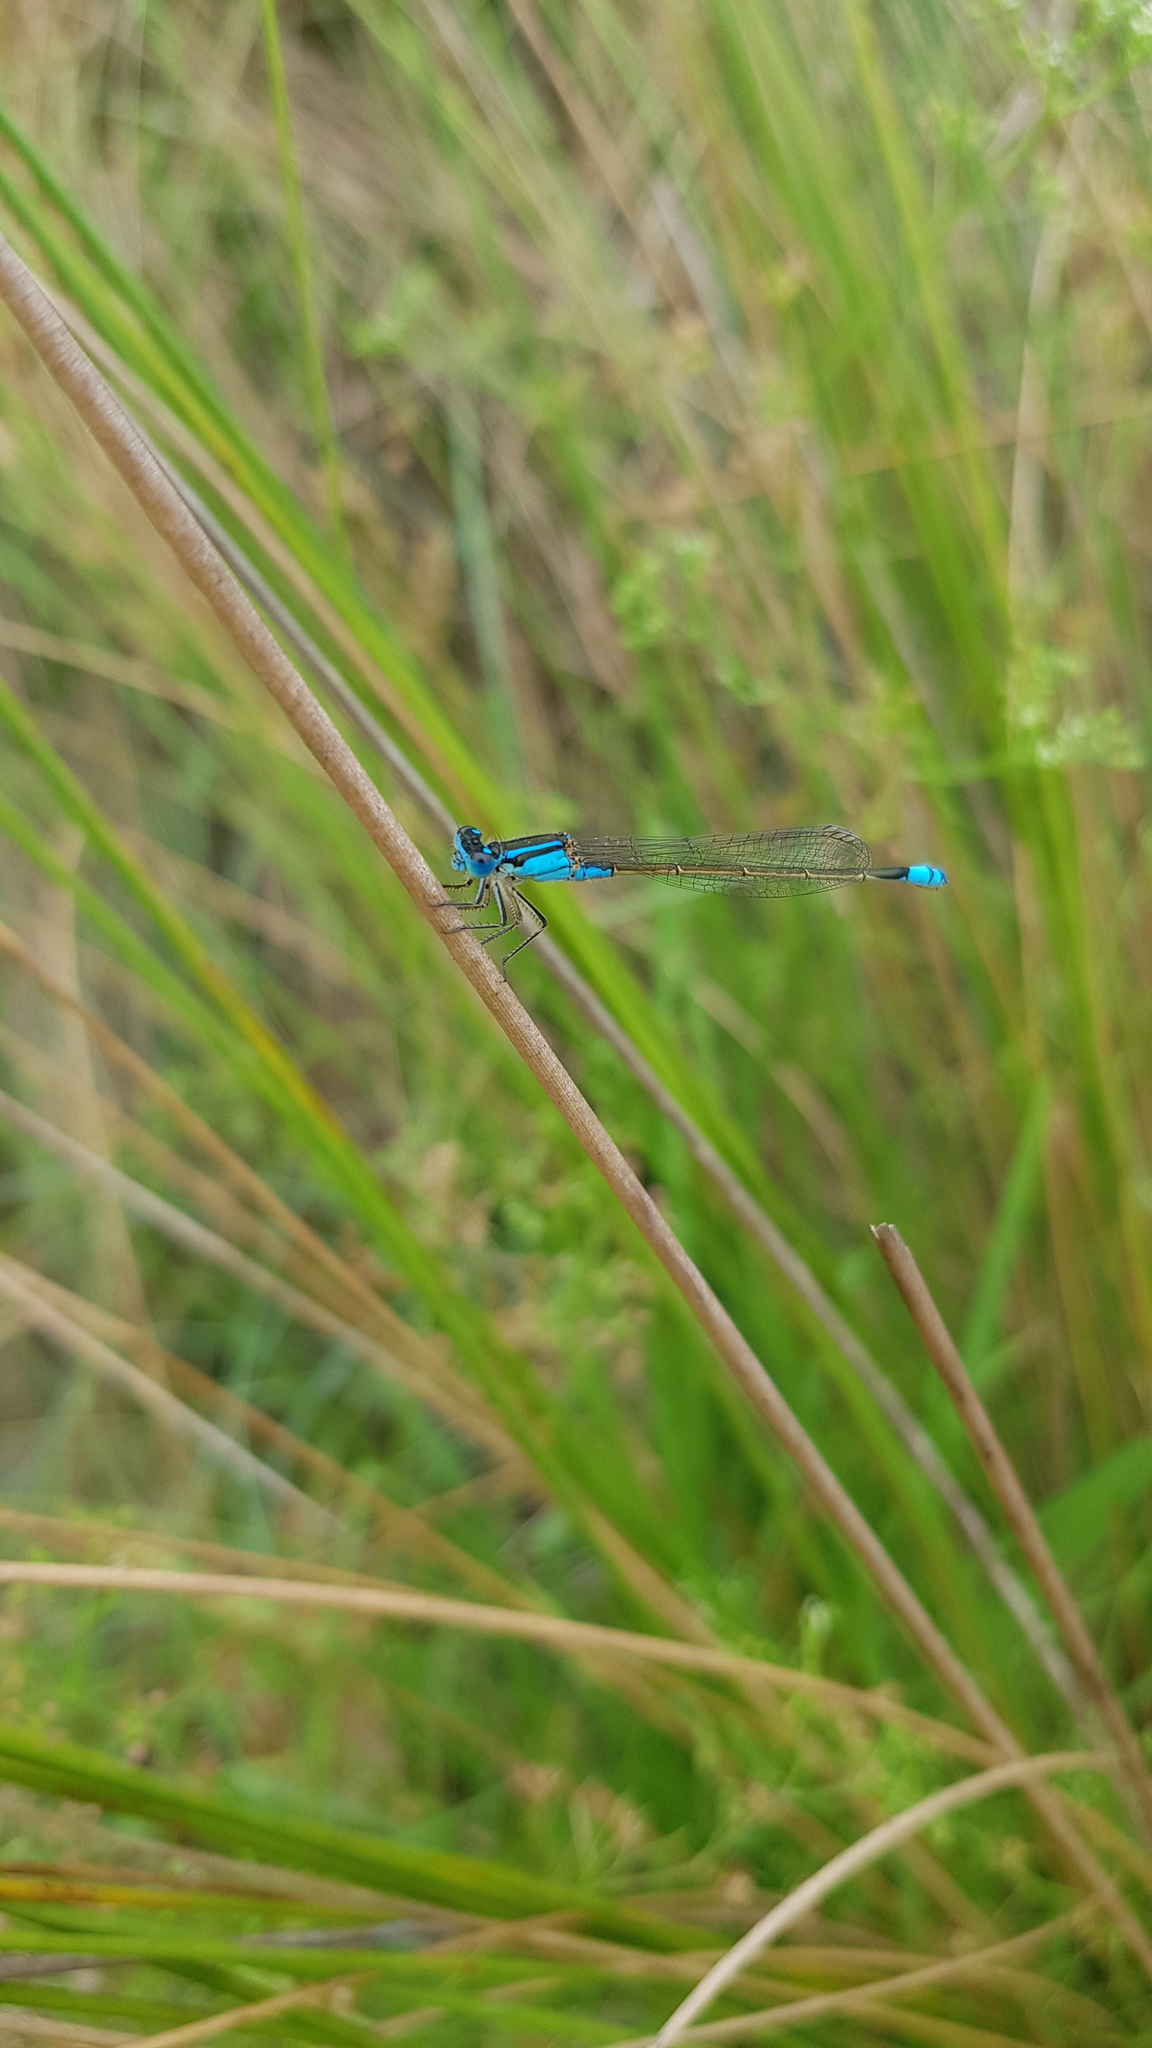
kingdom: Animalia
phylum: Arthropoda
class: Insecta
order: Odonata
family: Coenagrionidae
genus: Ischnura
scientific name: Ischnura heterosticta
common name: Common bluetail
